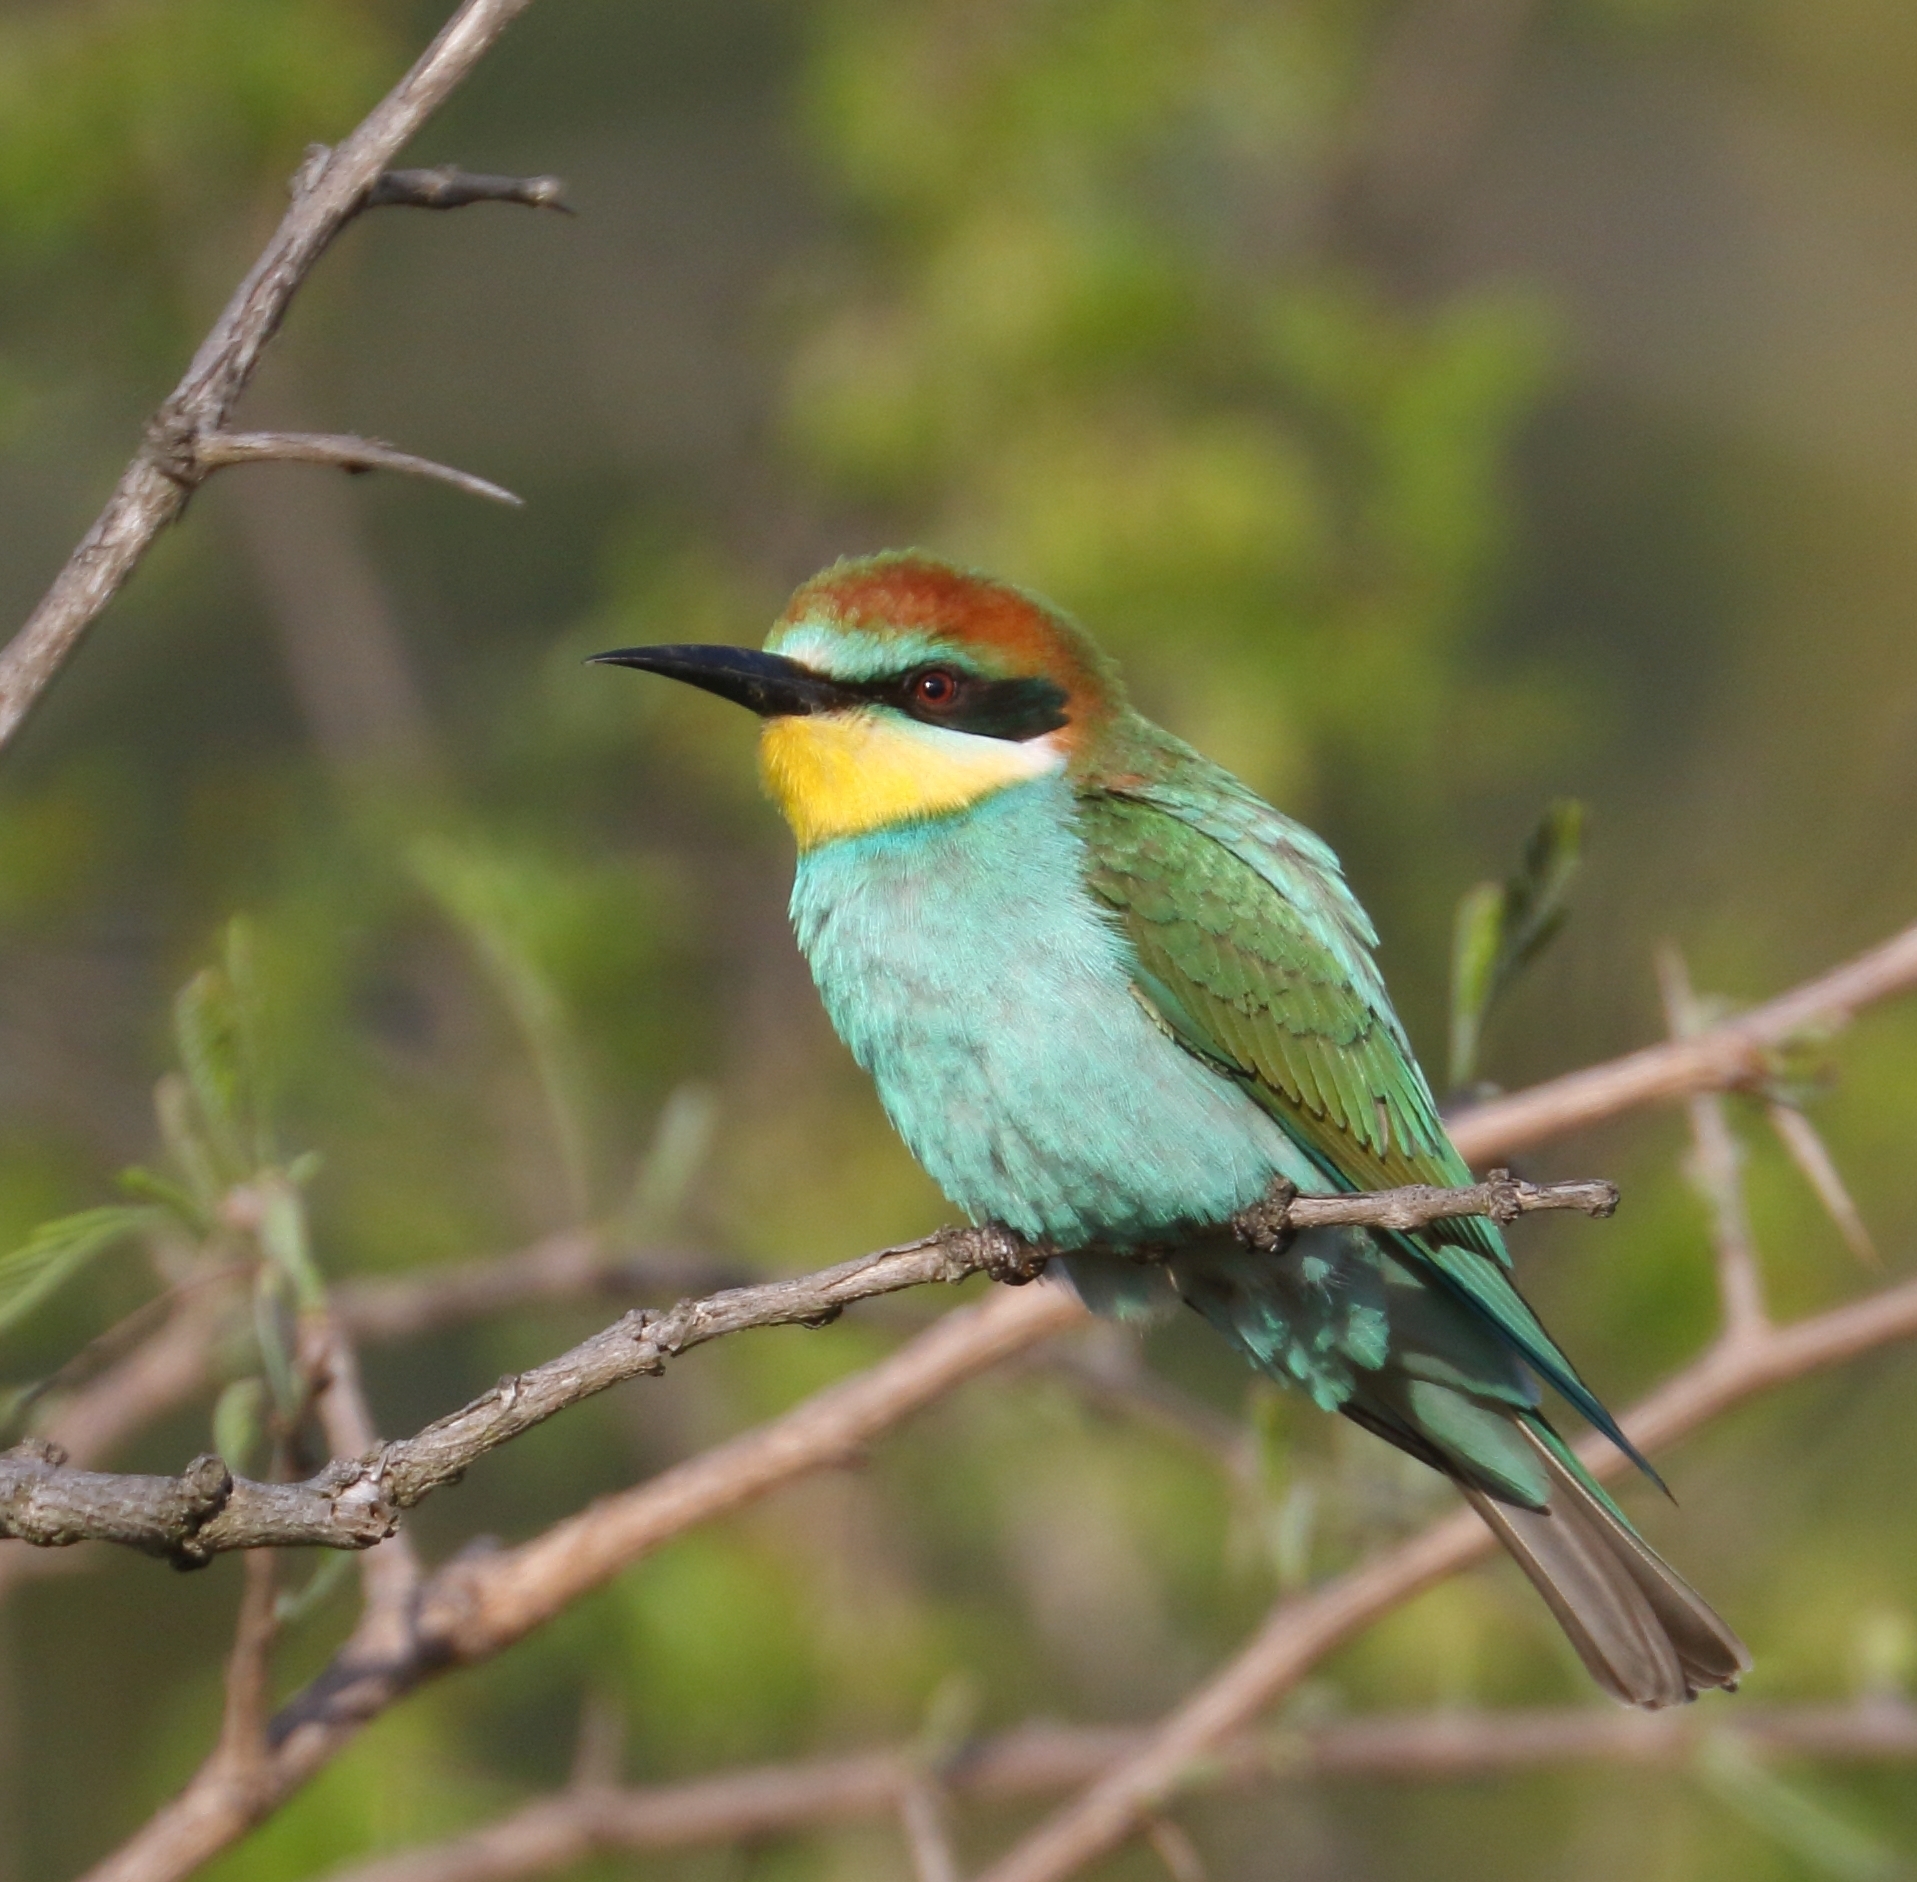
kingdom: Animalia
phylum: Chordata
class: Aves
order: Coraciiformes
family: Meropidae
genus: Merops
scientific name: Merops apiaster
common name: European bee-eater
